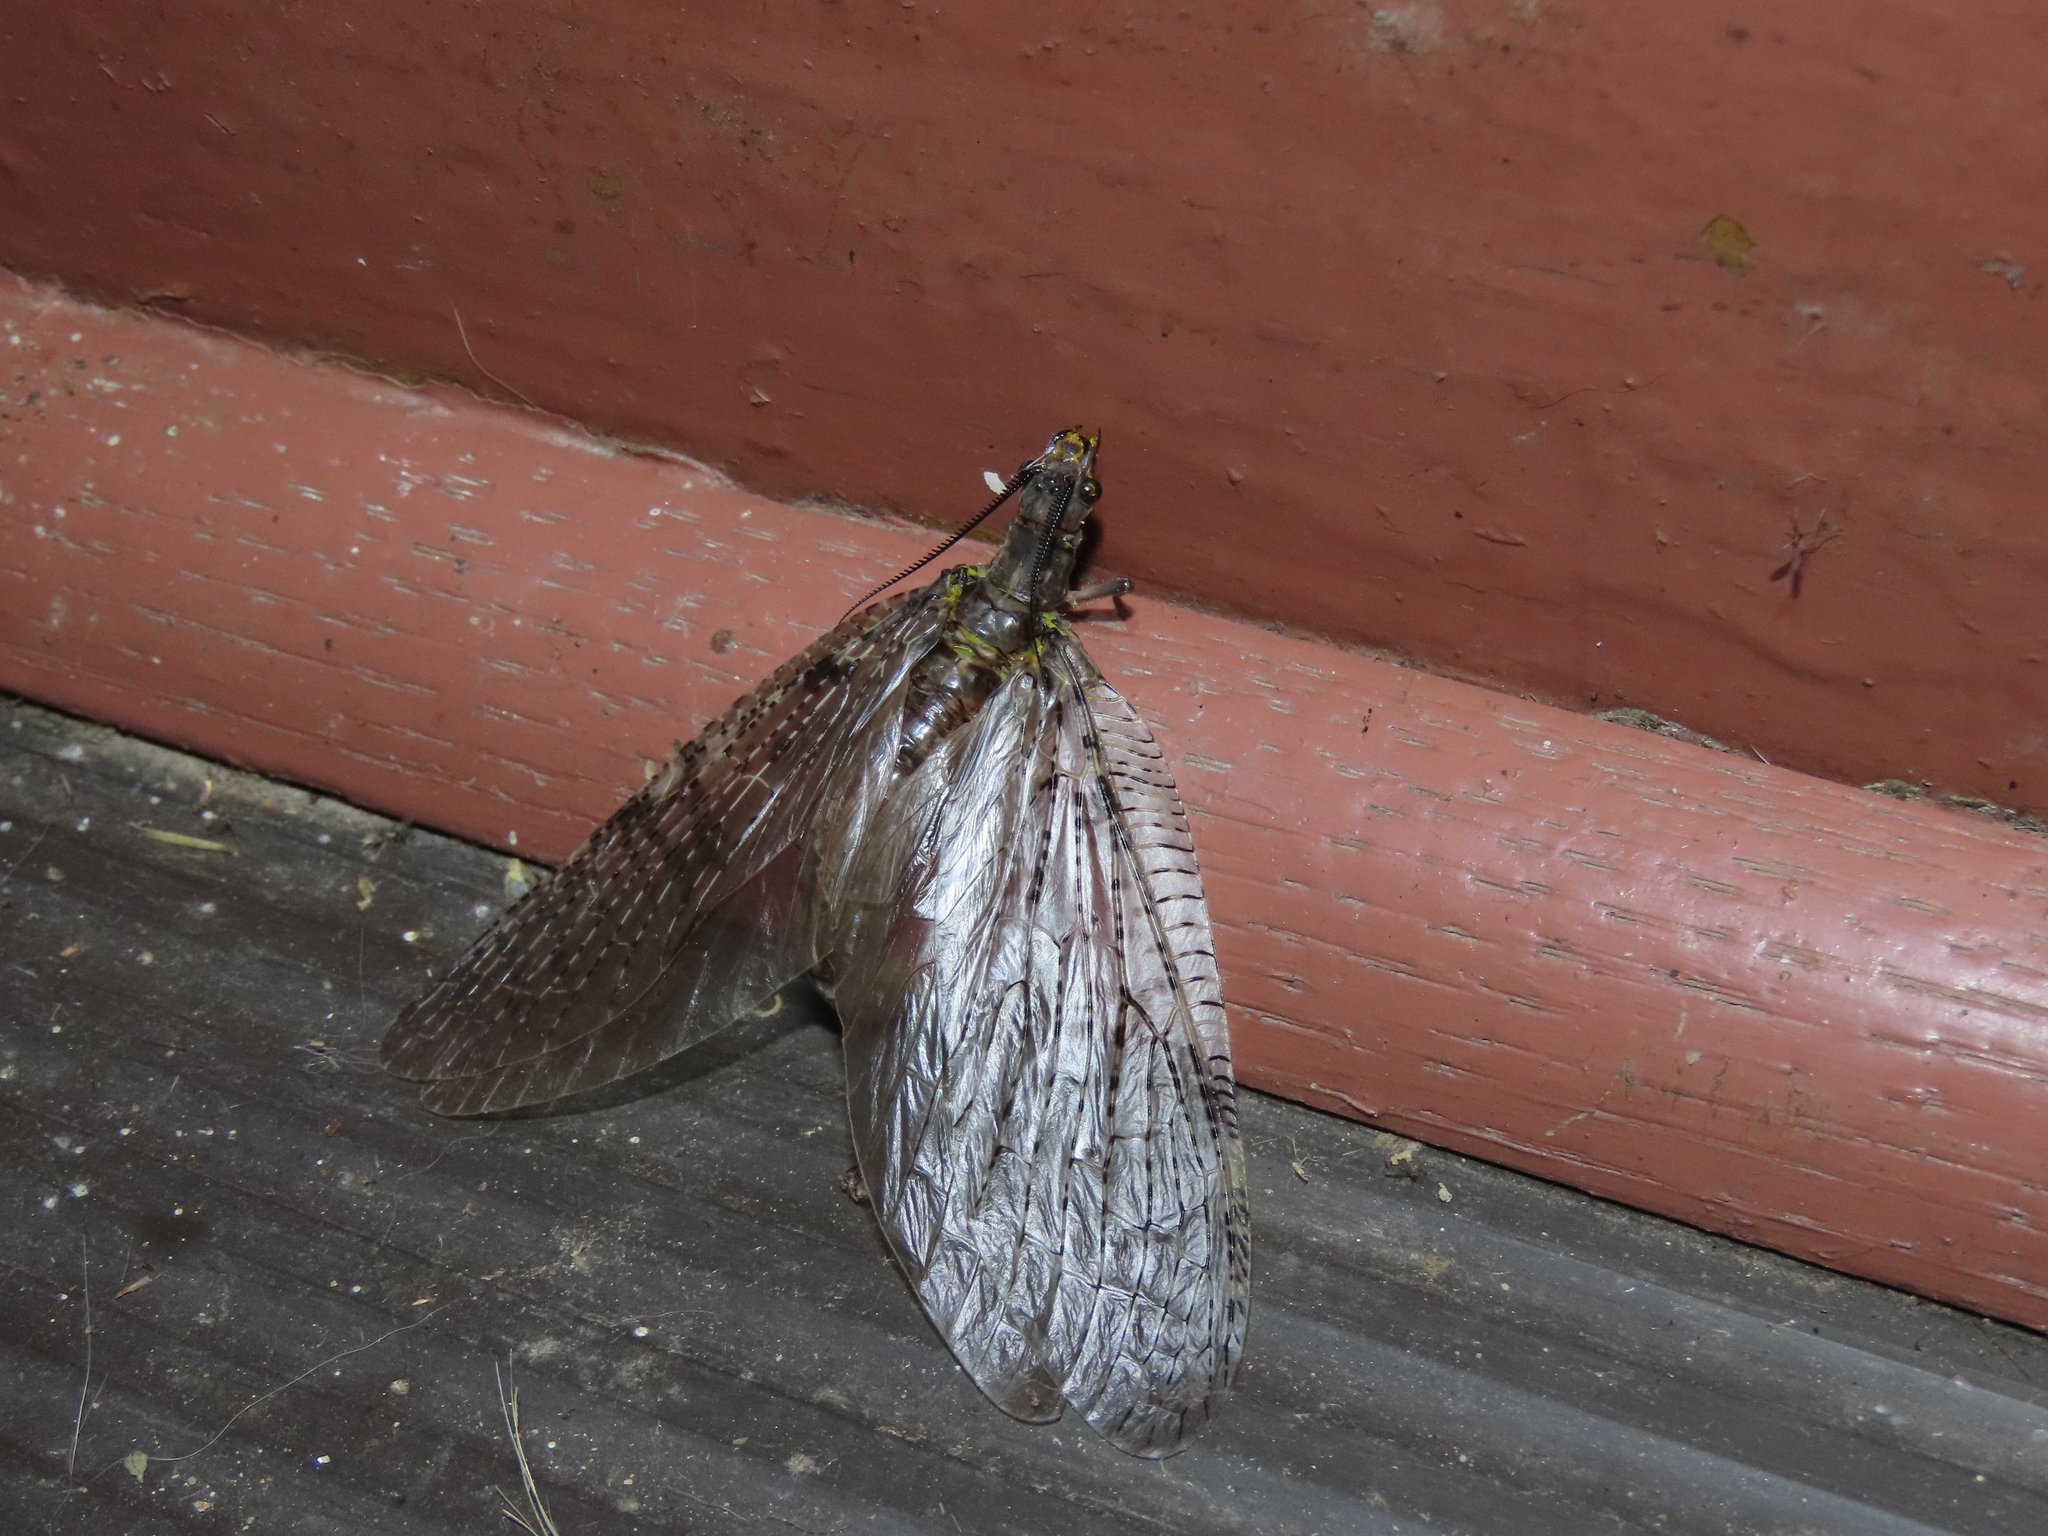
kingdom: Animalia
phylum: Arthropoda
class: Insecta
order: Megaloptera
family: Corydalidae
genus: Chauliodes
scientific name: Chauliodes pectinicornis
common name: Summer fishfly
